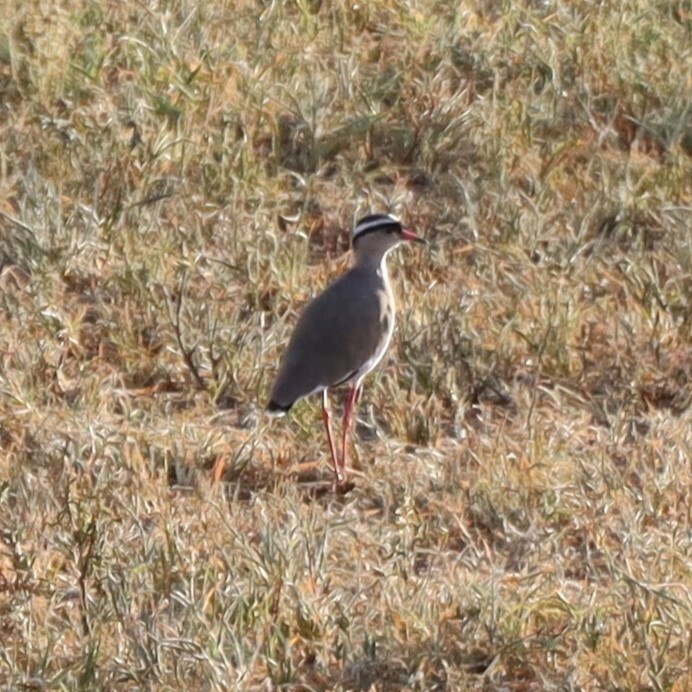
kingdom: Animalia
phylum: Chordata
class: Aves
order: Charadriiformes
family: Charadriidae
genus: Vanellus
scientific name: Vanellus coronatus
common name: Crowned lapwing
